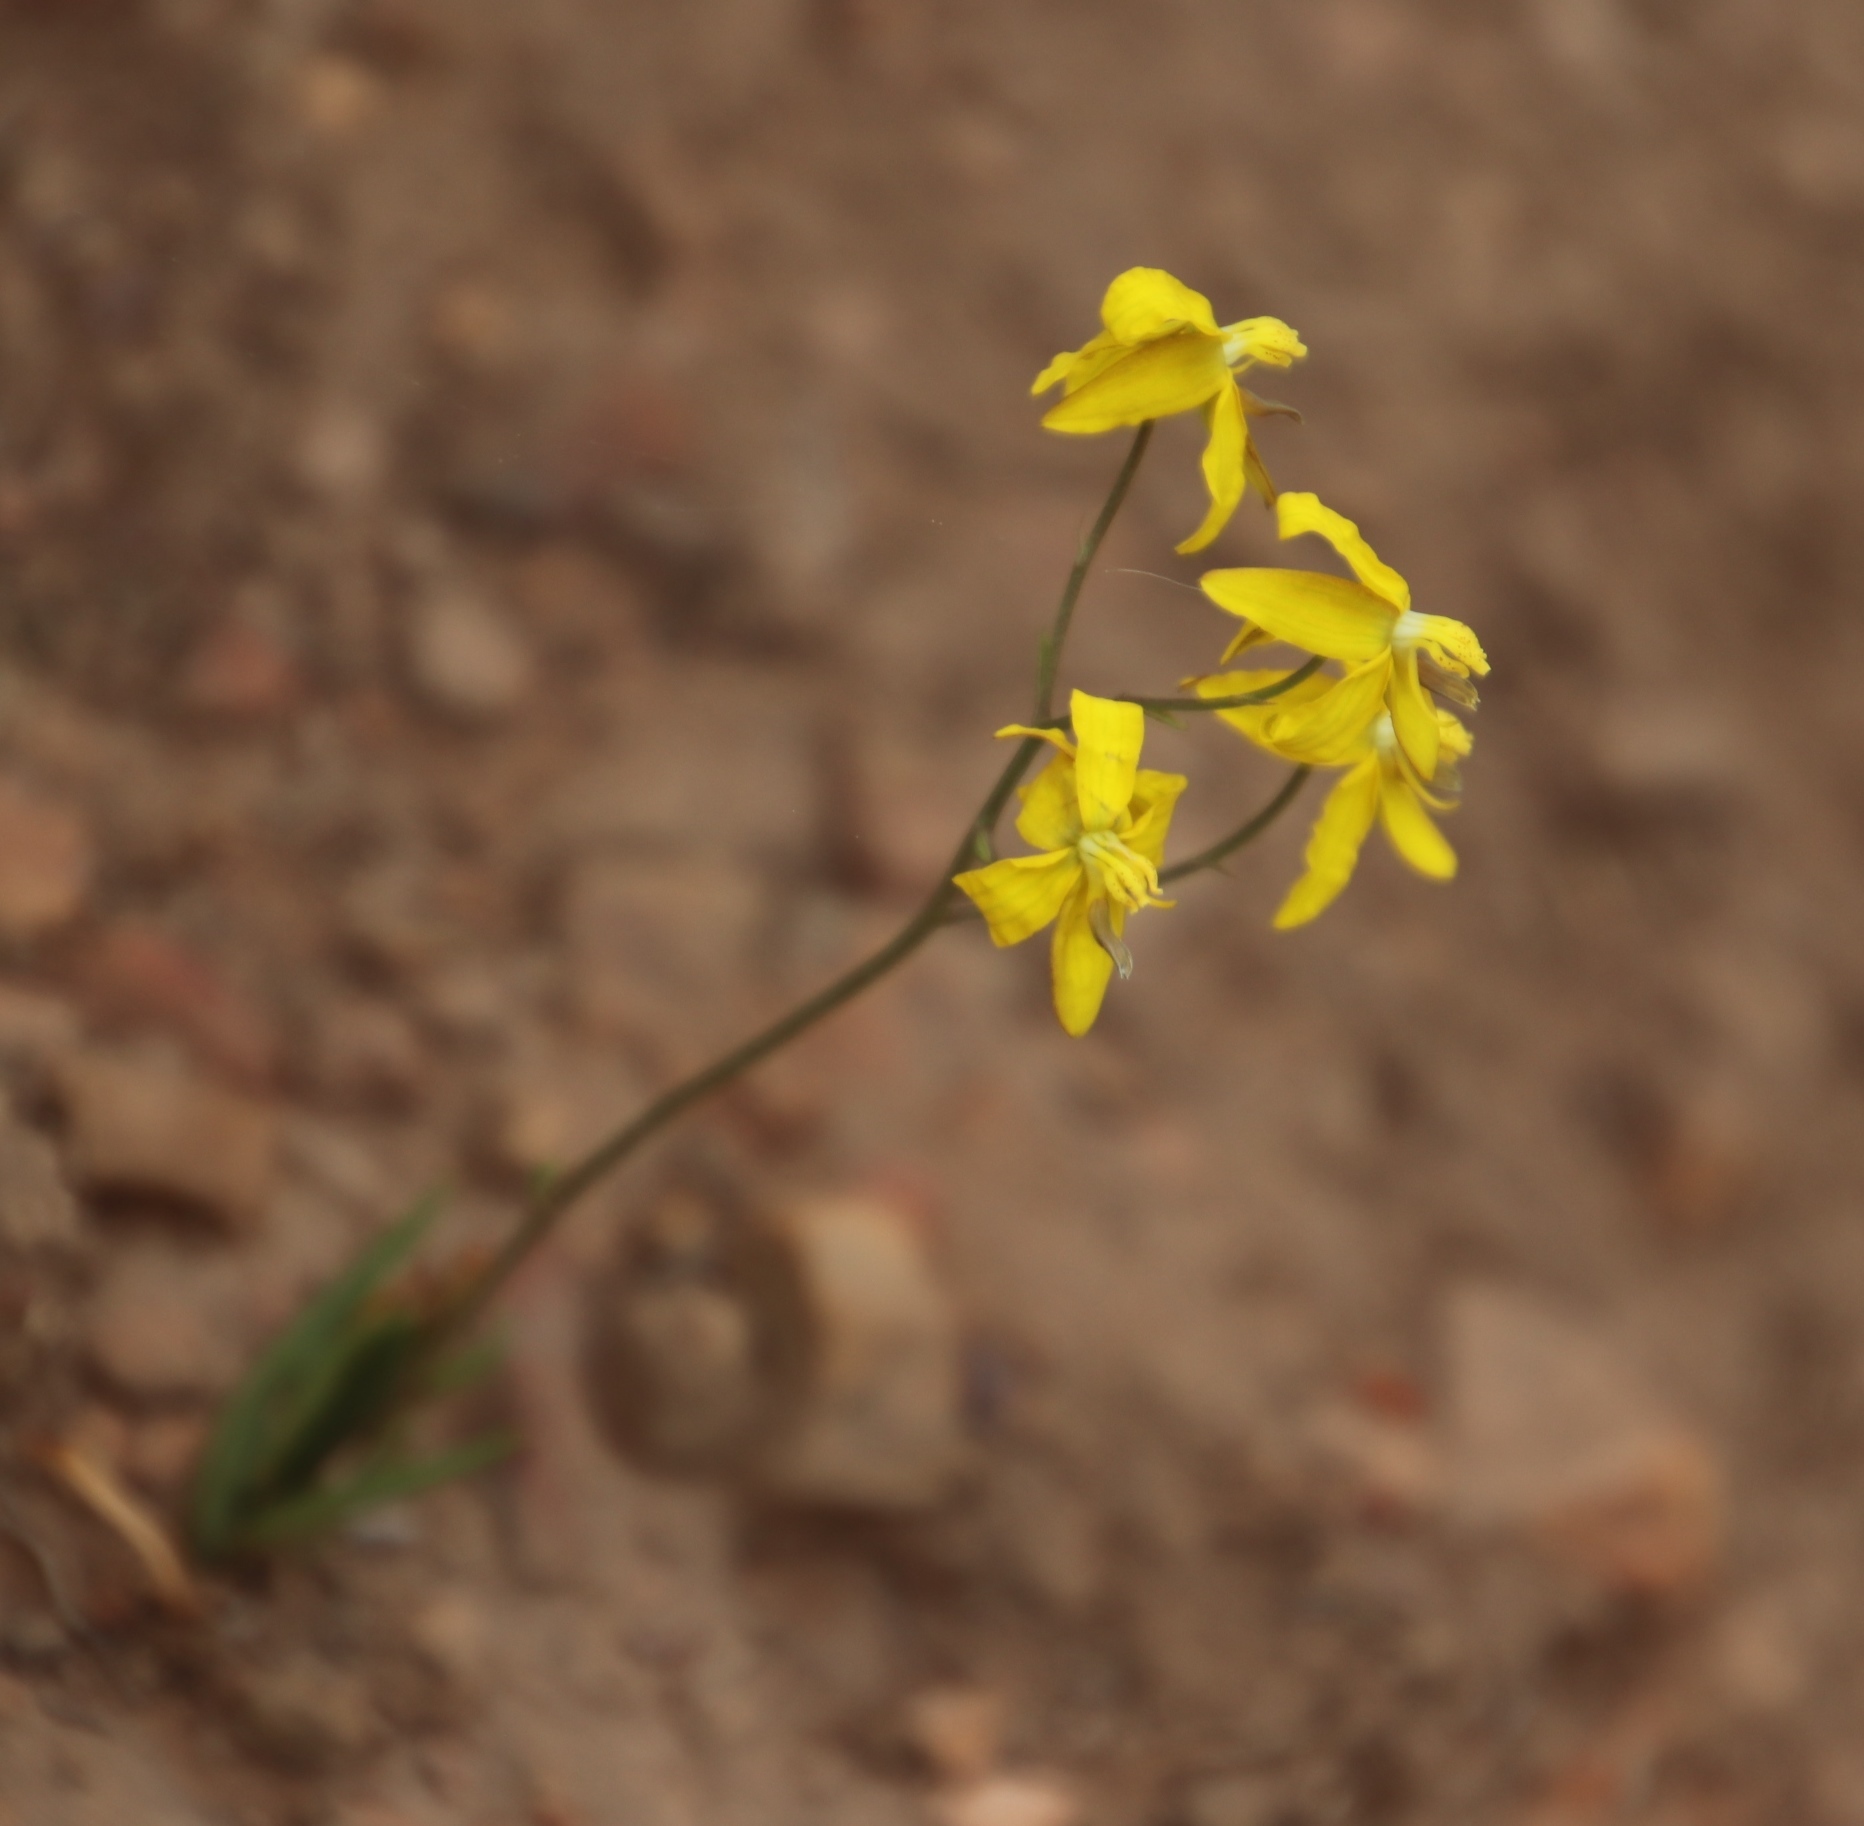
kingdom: Plantae
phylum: Tracheophyta
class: Liliopsida
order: Asparagales
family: Tecophilaeaceae
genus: Cyanella
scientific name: Cyanella lutea
